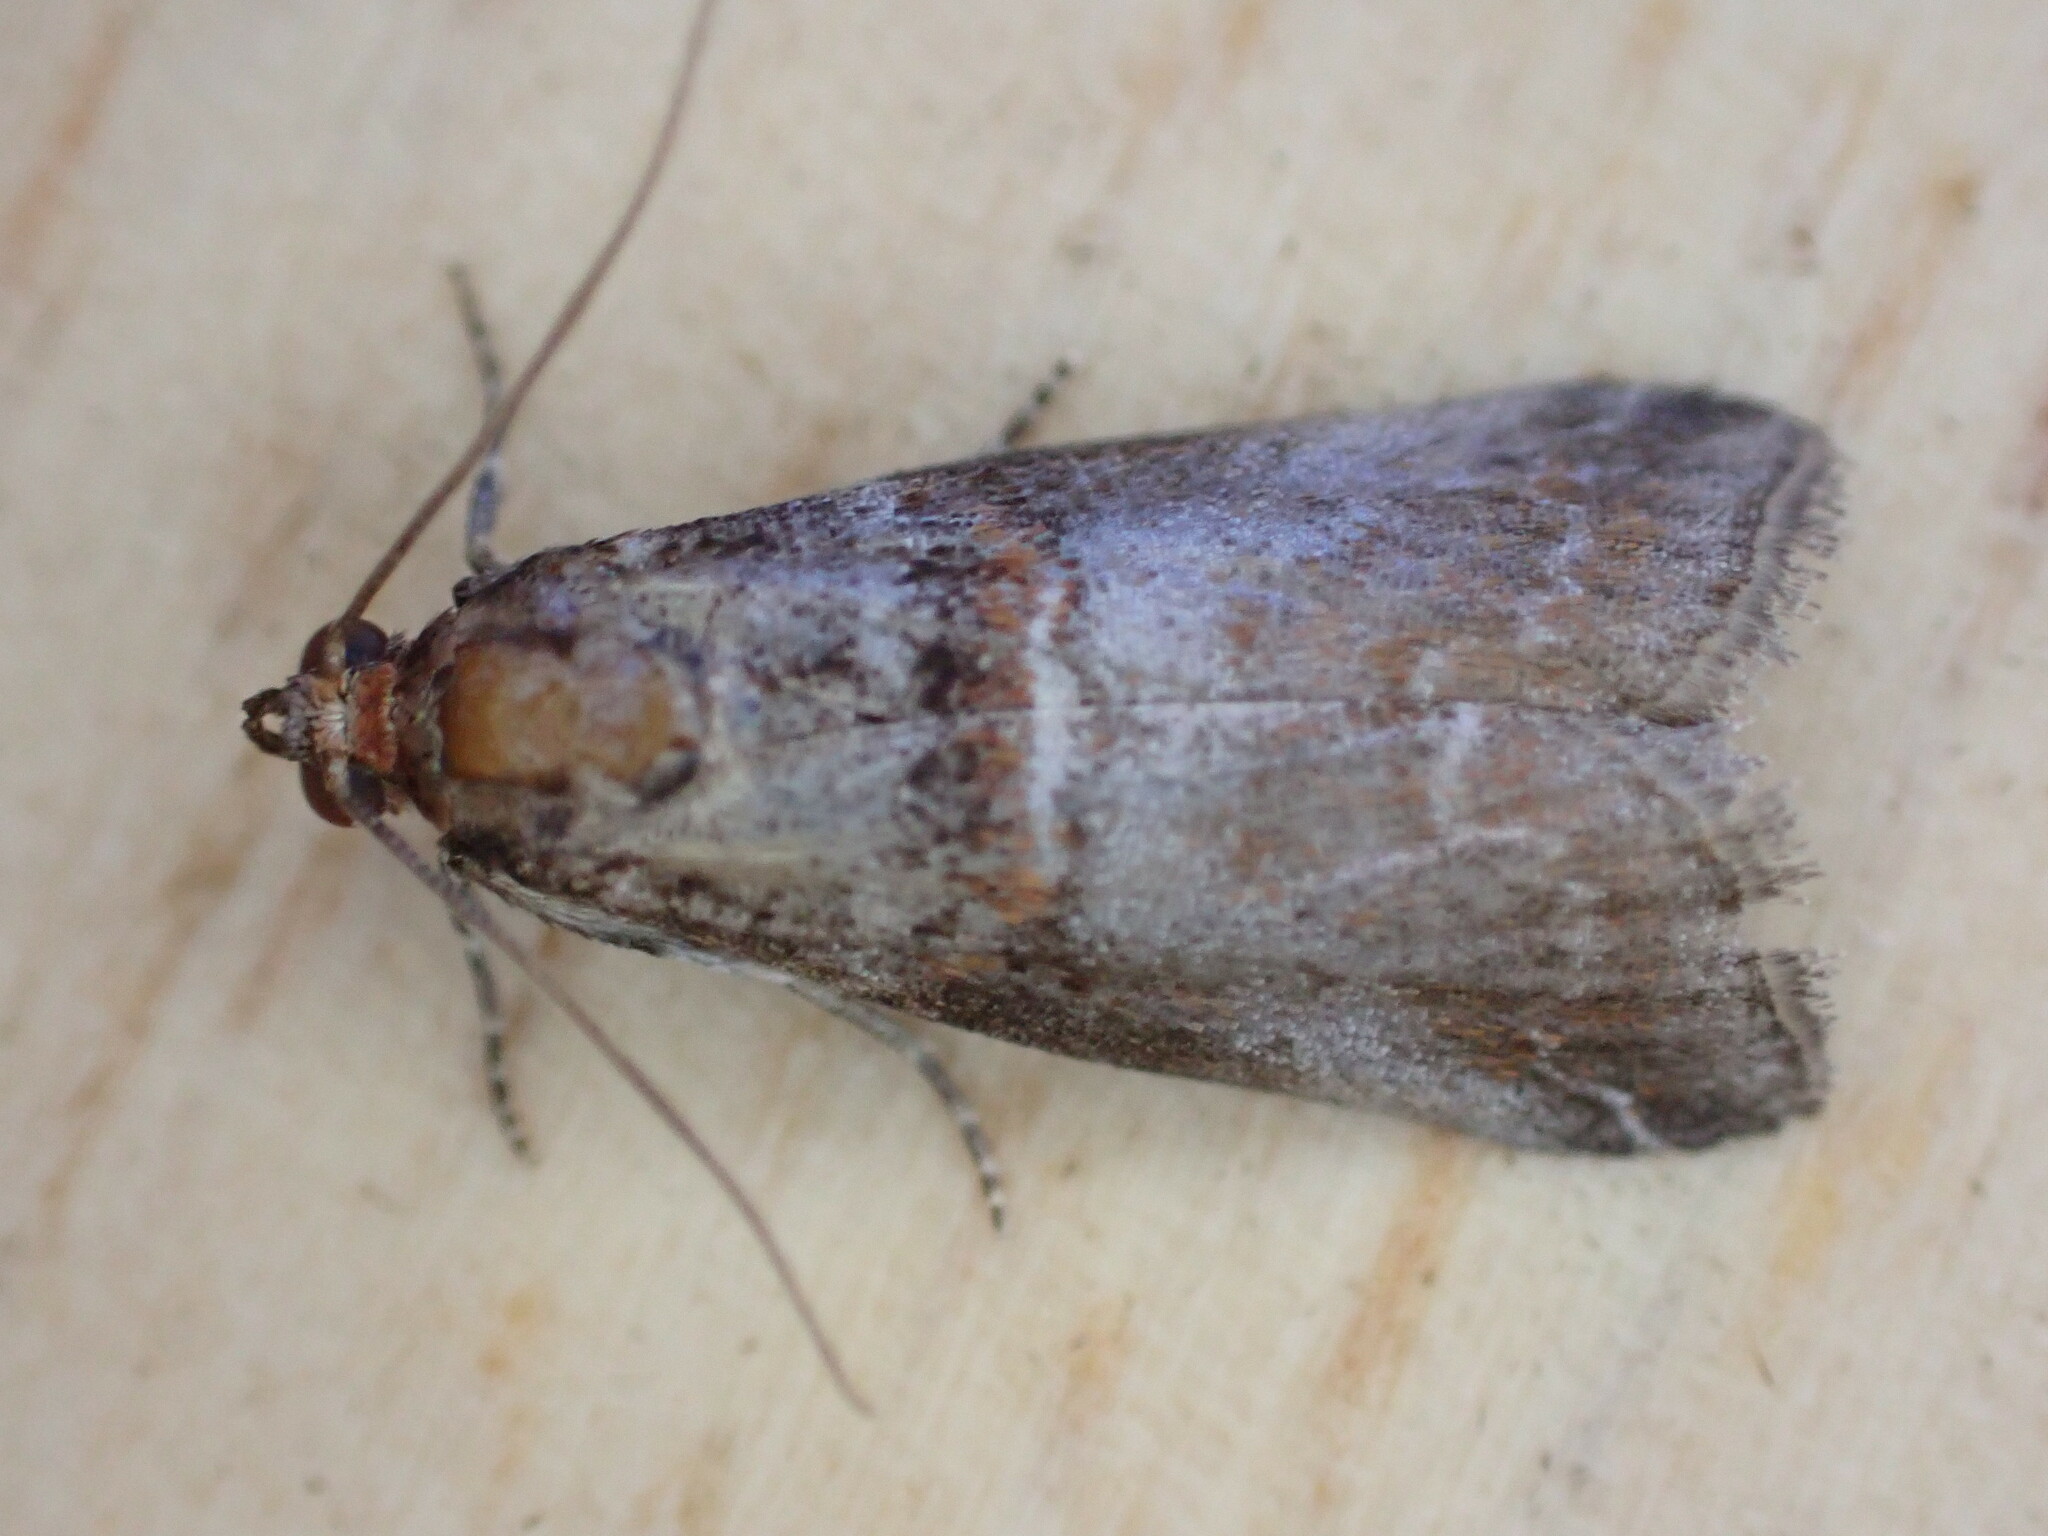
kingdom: Animalia
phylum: Arthropoda
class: Insecta
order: Lepidoptera
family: Pyralidae
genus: Acrobasis
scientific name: Acrobasis advenella
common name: Grey knot-horn
